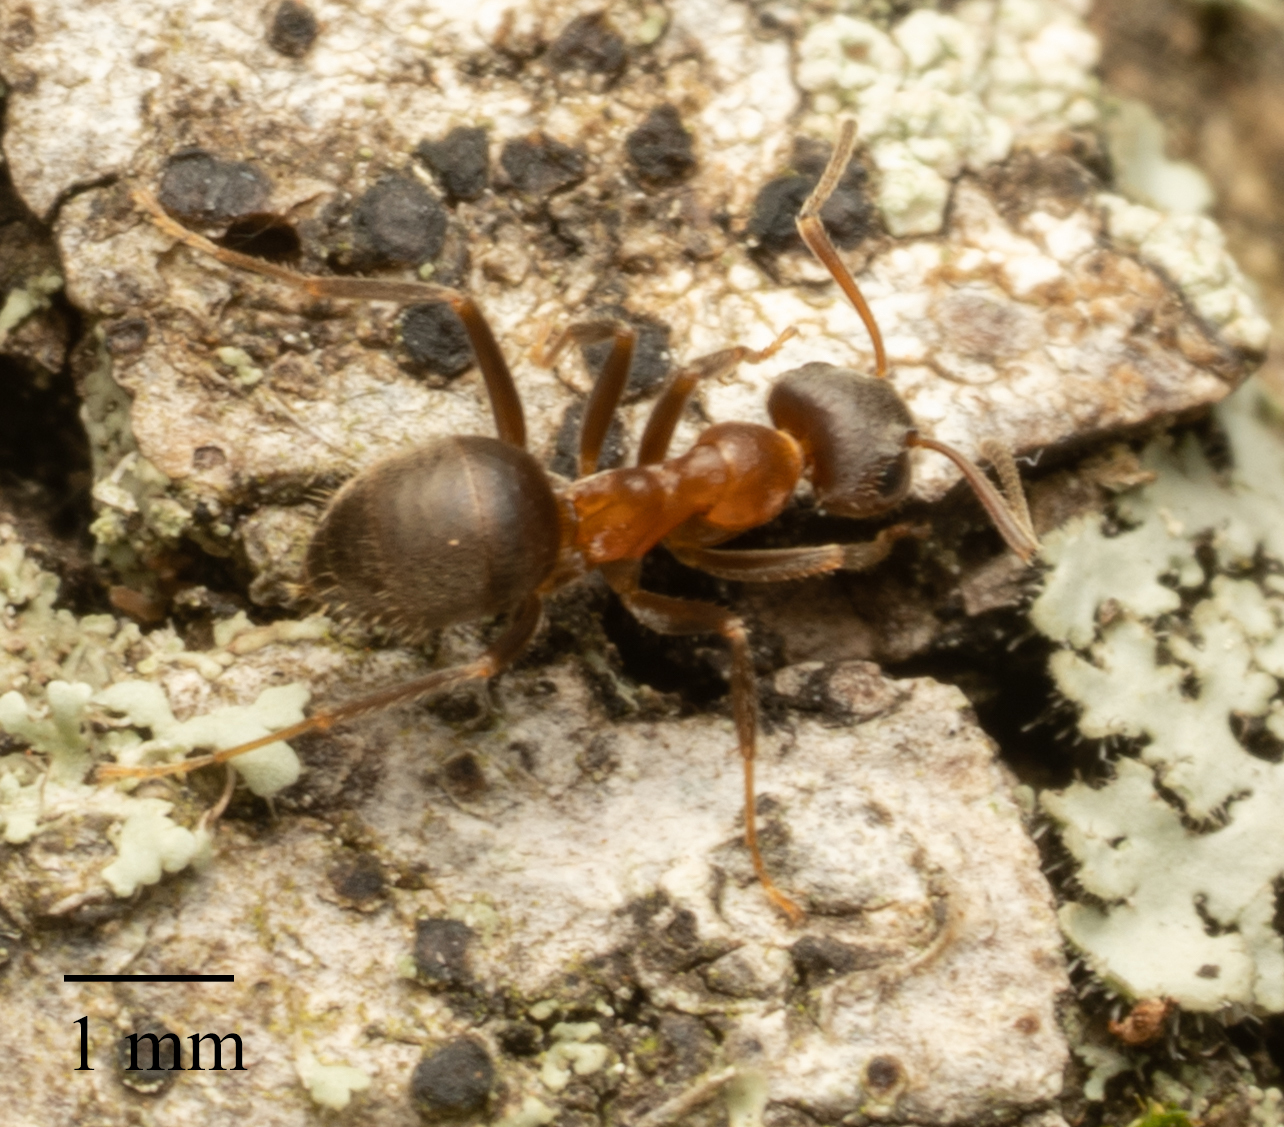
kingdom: Animalia
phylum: Arthropoda
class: Insecta
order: Hymenoptera
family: Formicidae
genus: Lasius
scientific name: Lasius emarginatus
